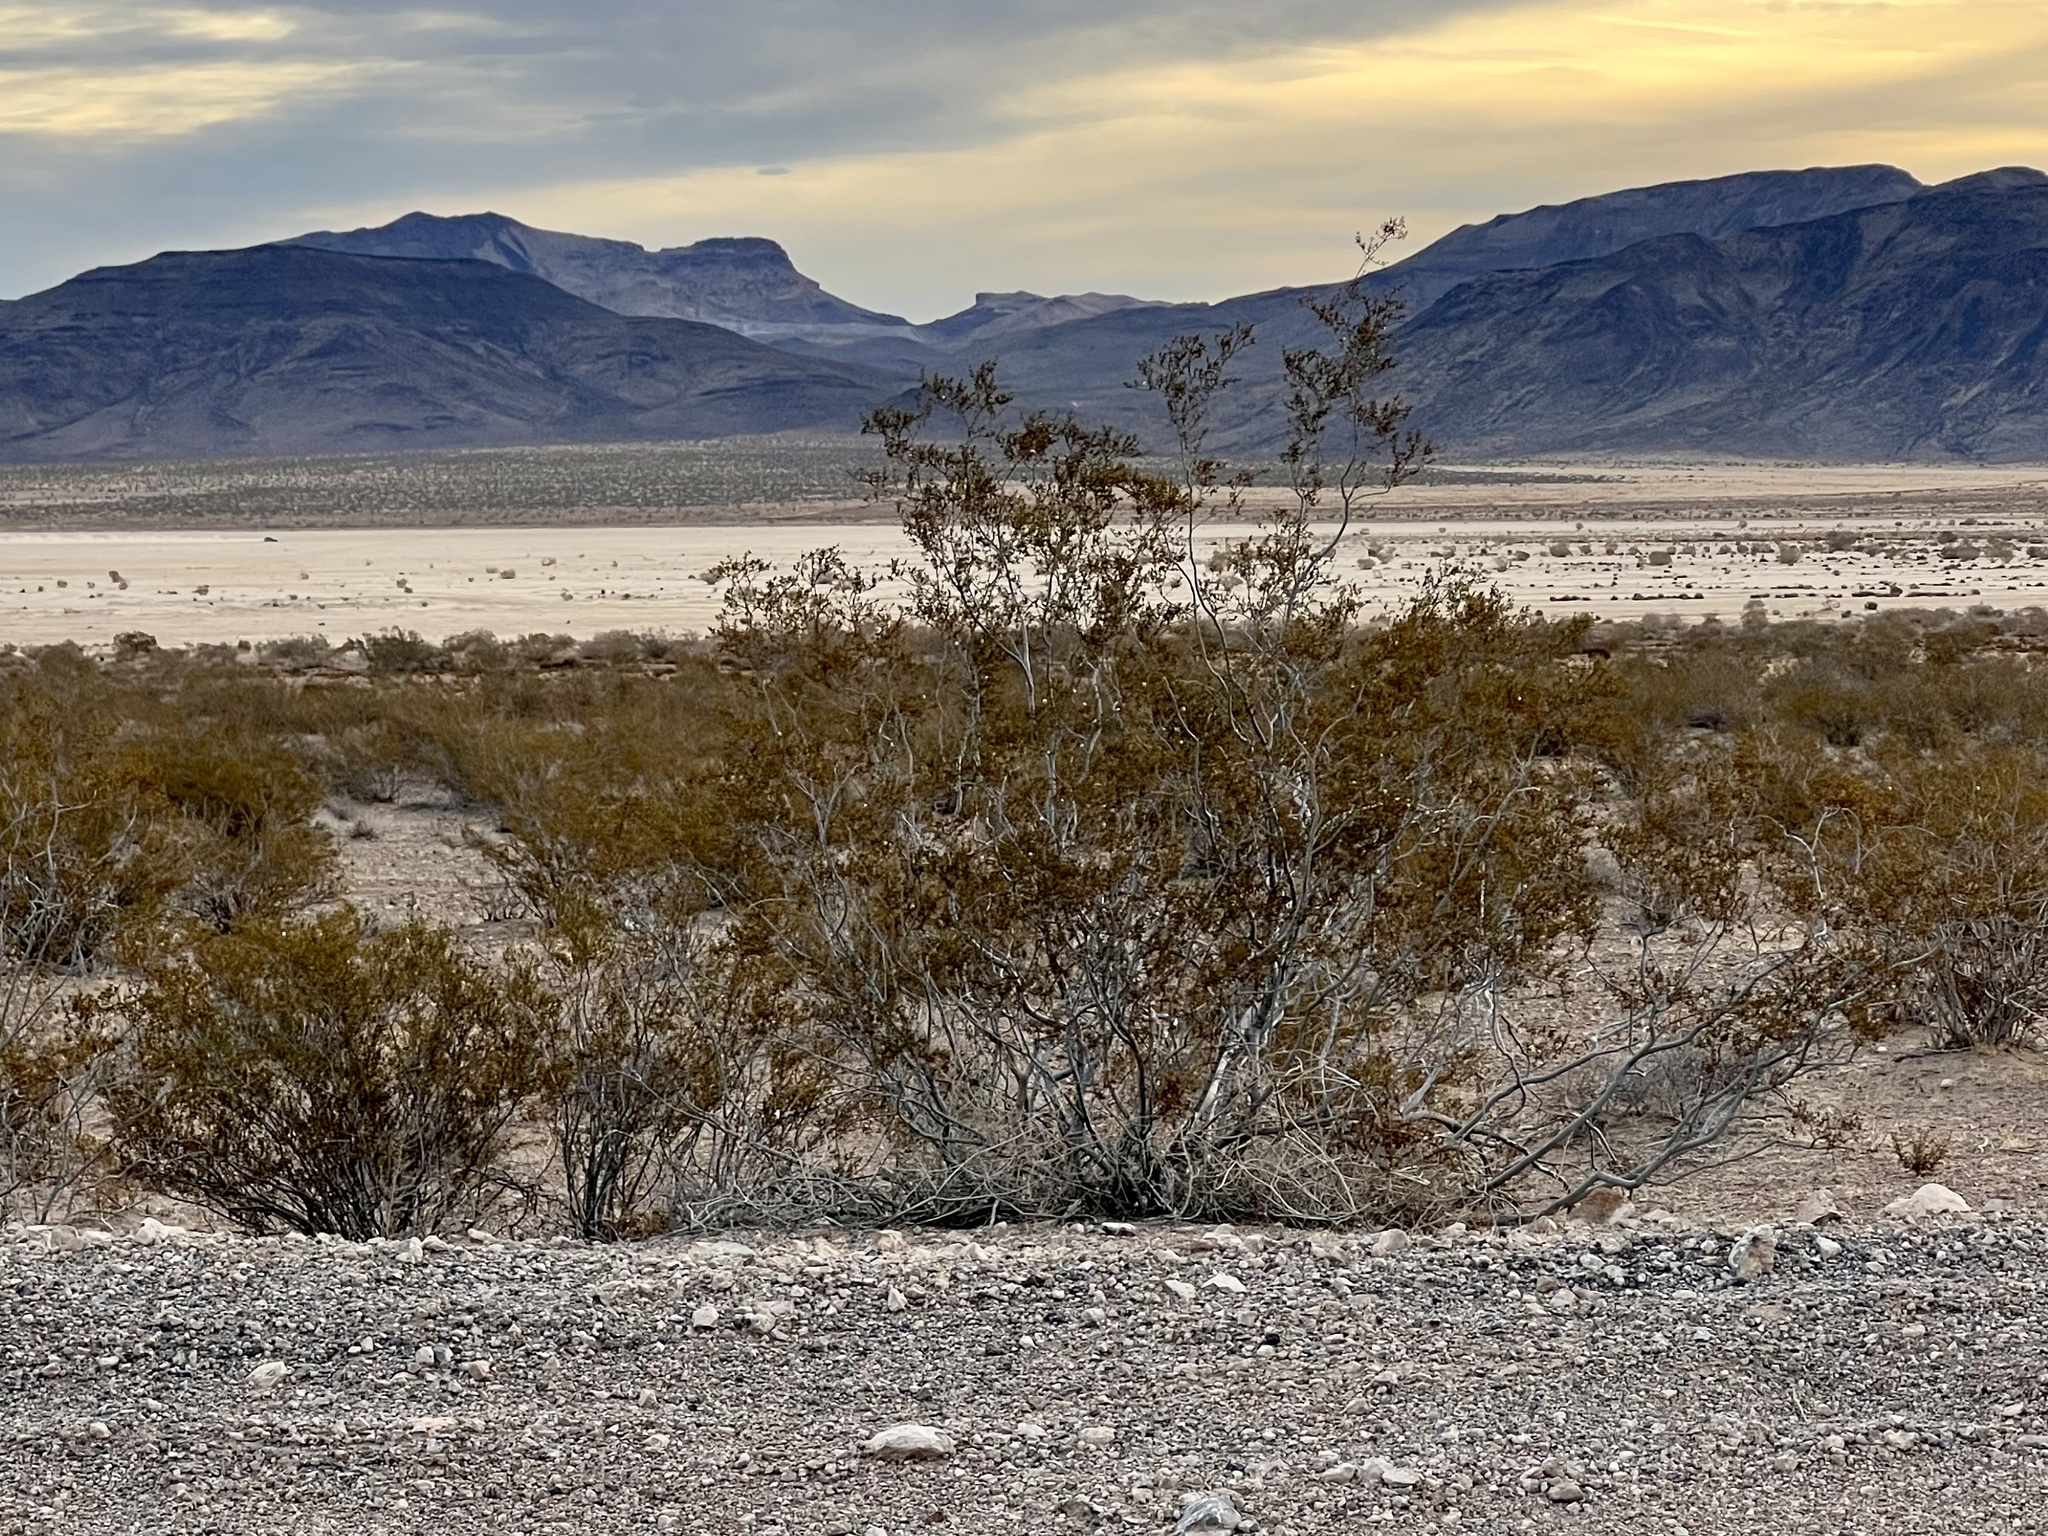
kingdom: Plantae
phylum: Tracheophyta
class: Magnoliopsida
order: Zygophyllales
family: Zygophyllaceae
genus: Larrea
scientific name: Larrea tridentata
